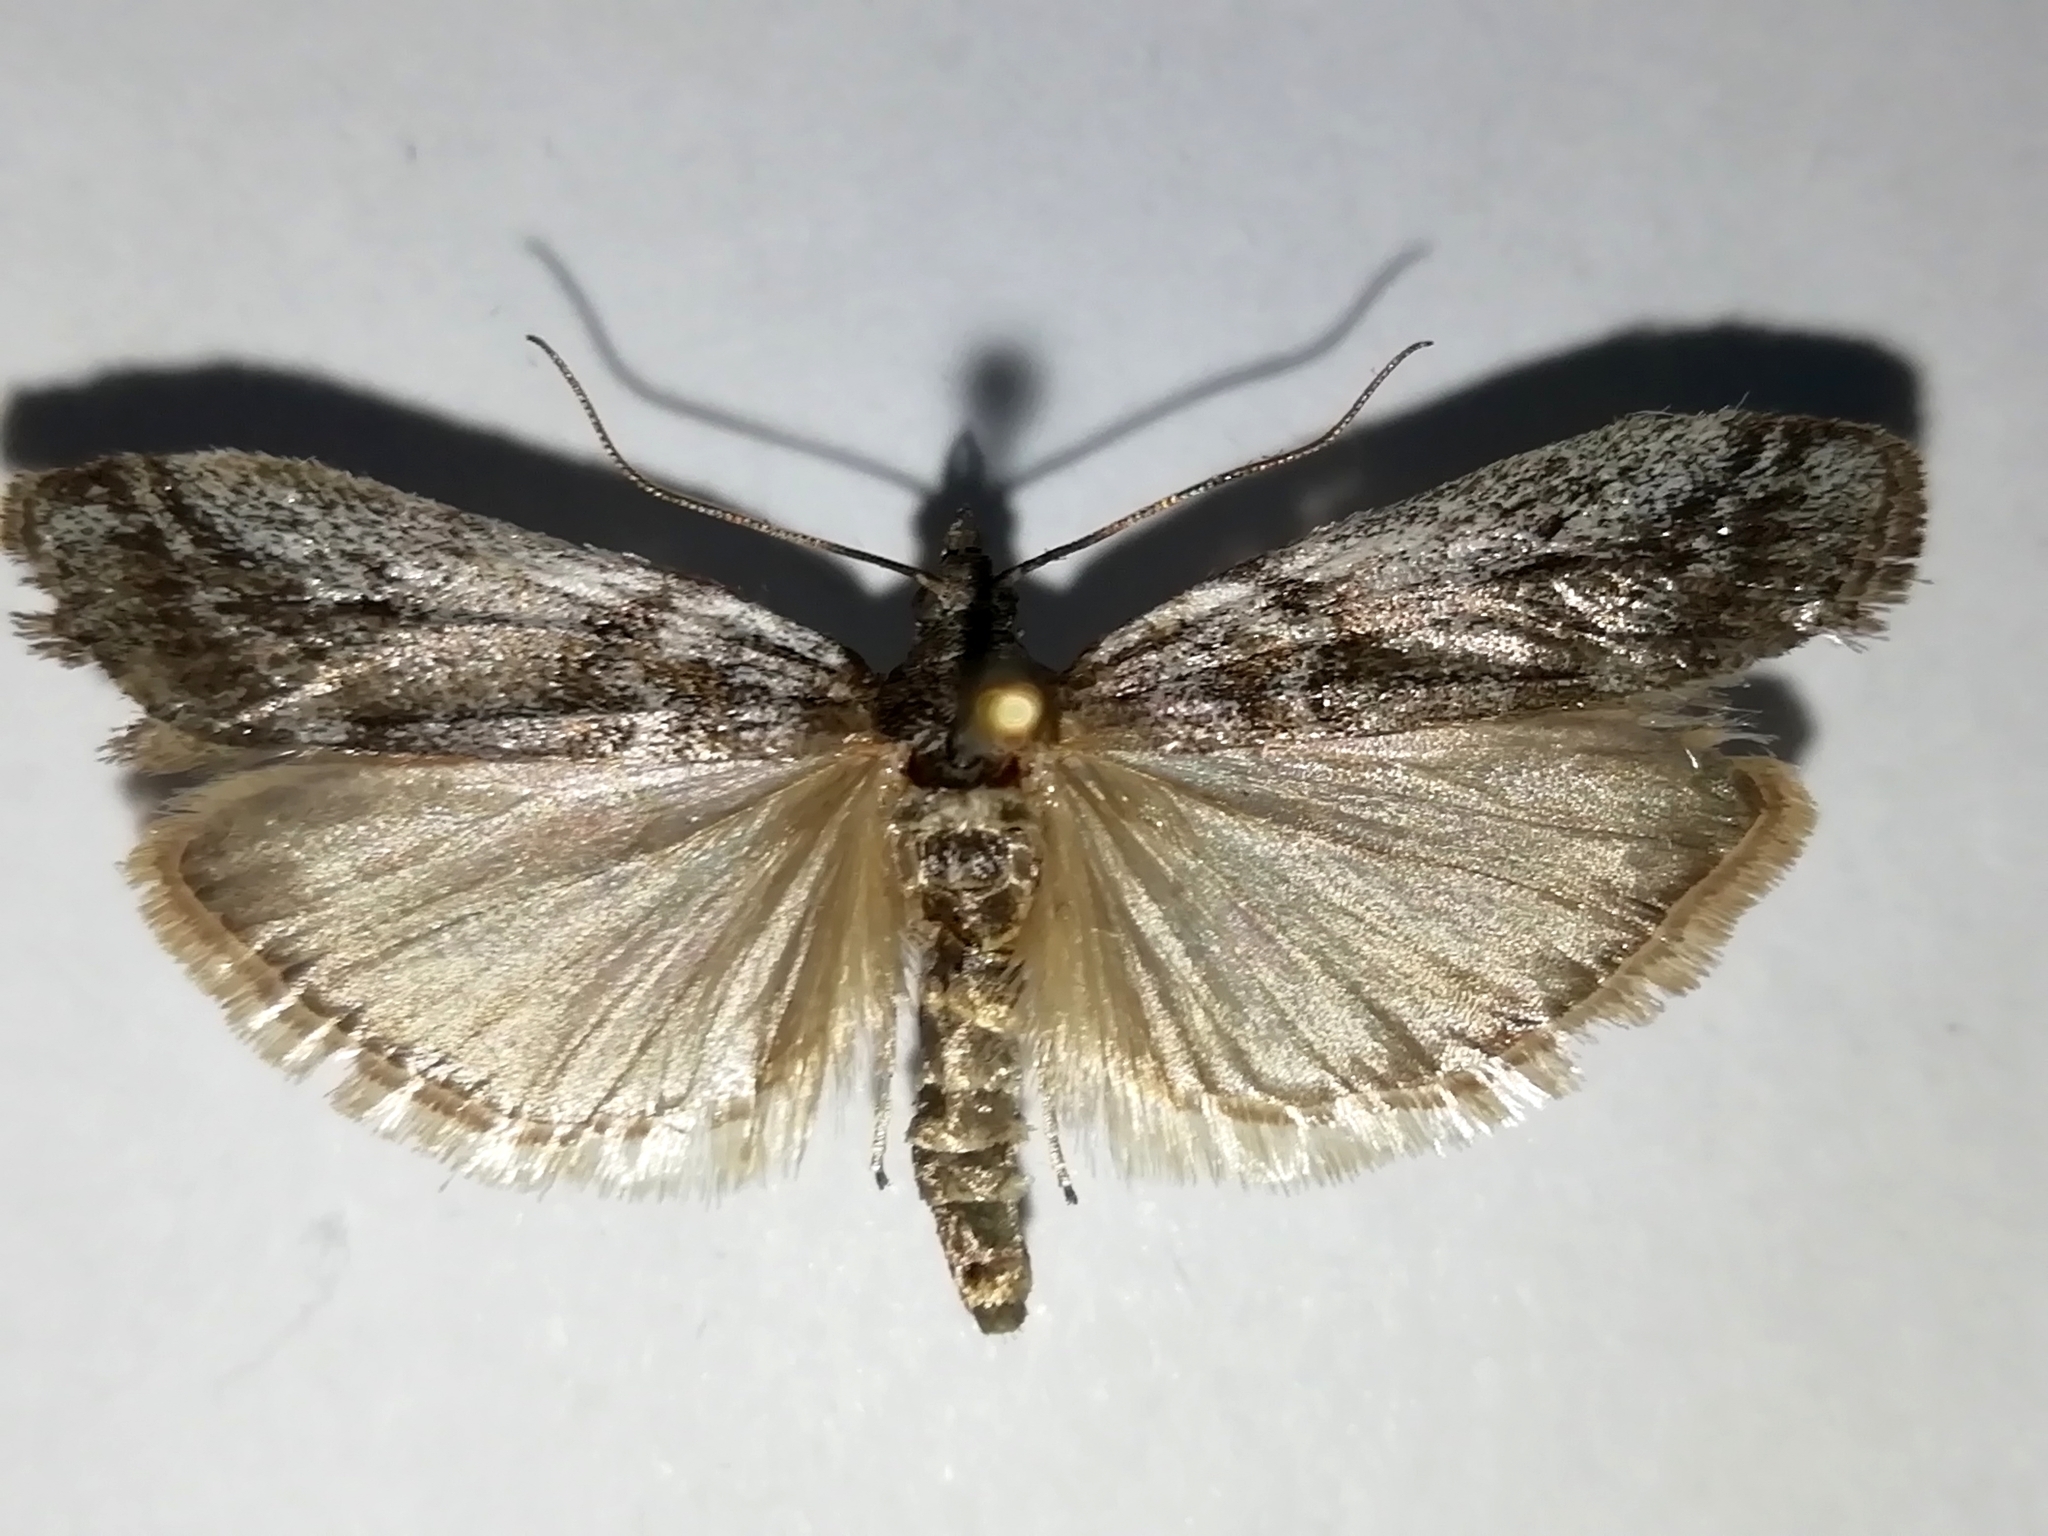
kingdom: Animalia
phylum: Arthropoda
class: Insecta
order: Lepidoptera
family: Pyralidae
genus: Zophodia
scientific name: Zophodia convolutella
